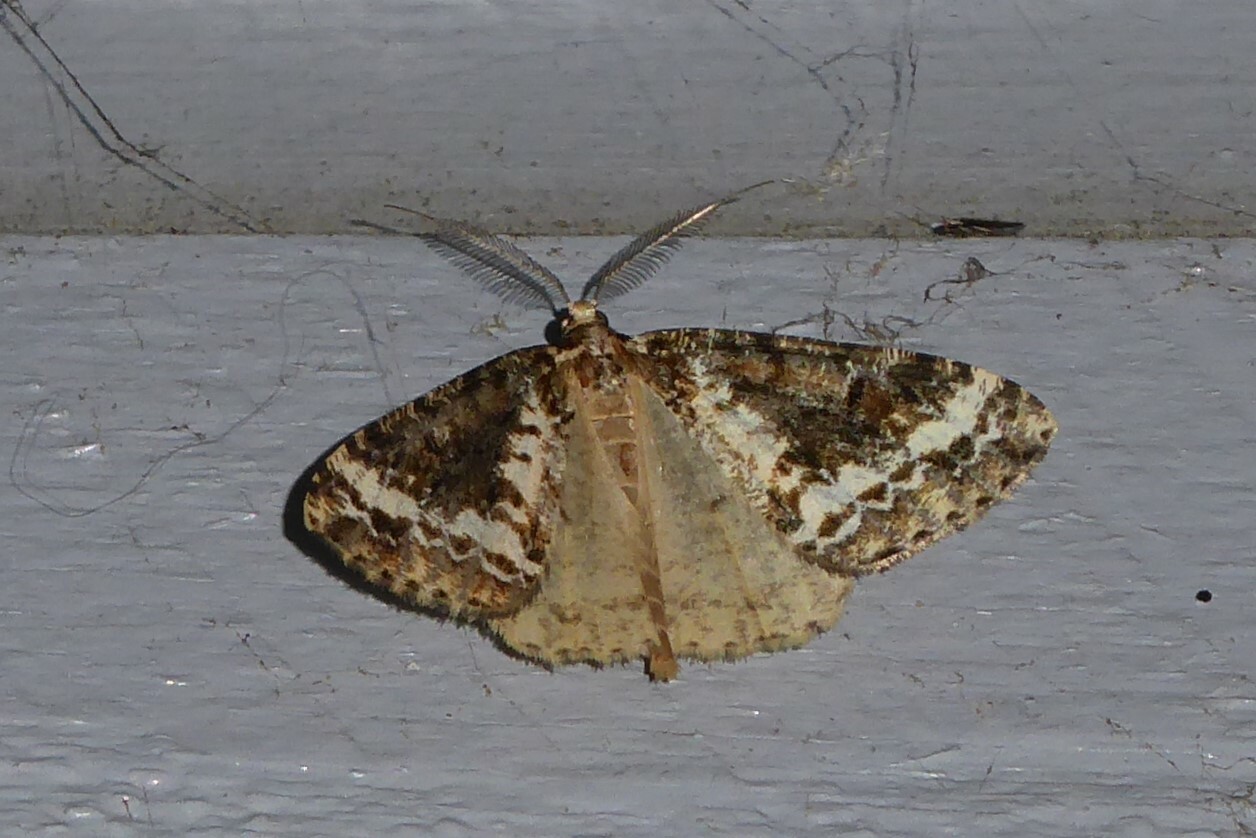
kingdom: Animalia
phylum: Arthropoda
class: Insecta
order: Lepidoptera
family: Geometridae
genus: Pseudocoremia
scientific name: Pseudocoremia leucelaea
